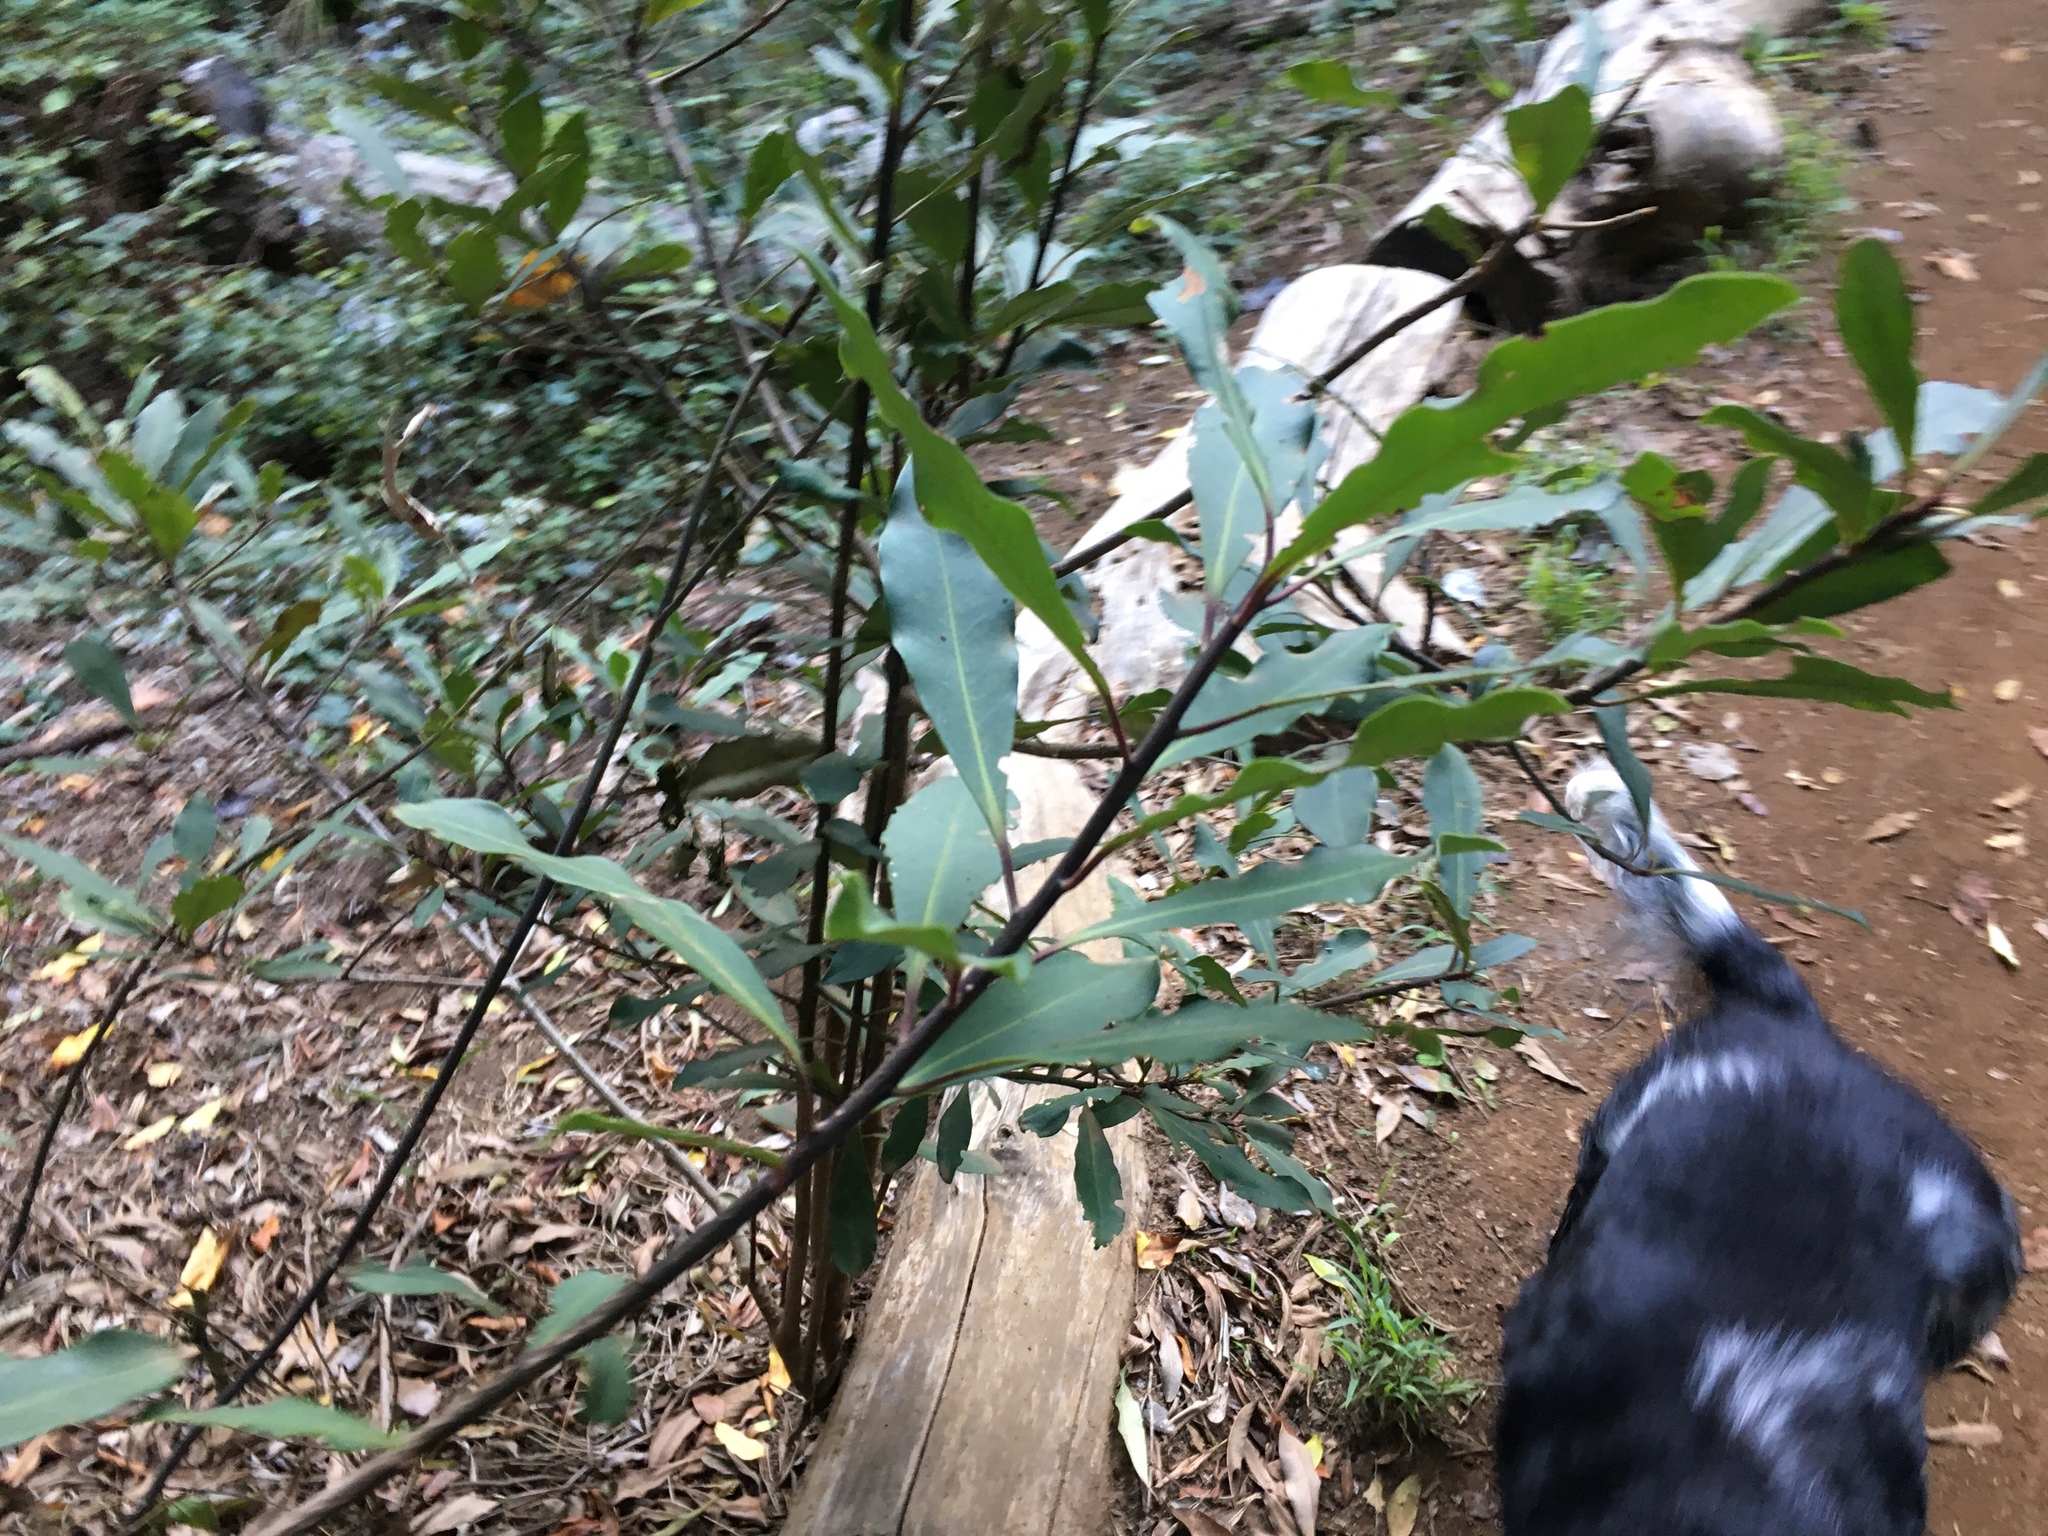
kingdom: Plantae
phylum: Tracheophyta
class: Magnoliopsida
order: Ericales
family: Primulaceae
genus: Myrsine
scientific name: Myrsine melanophloeos
